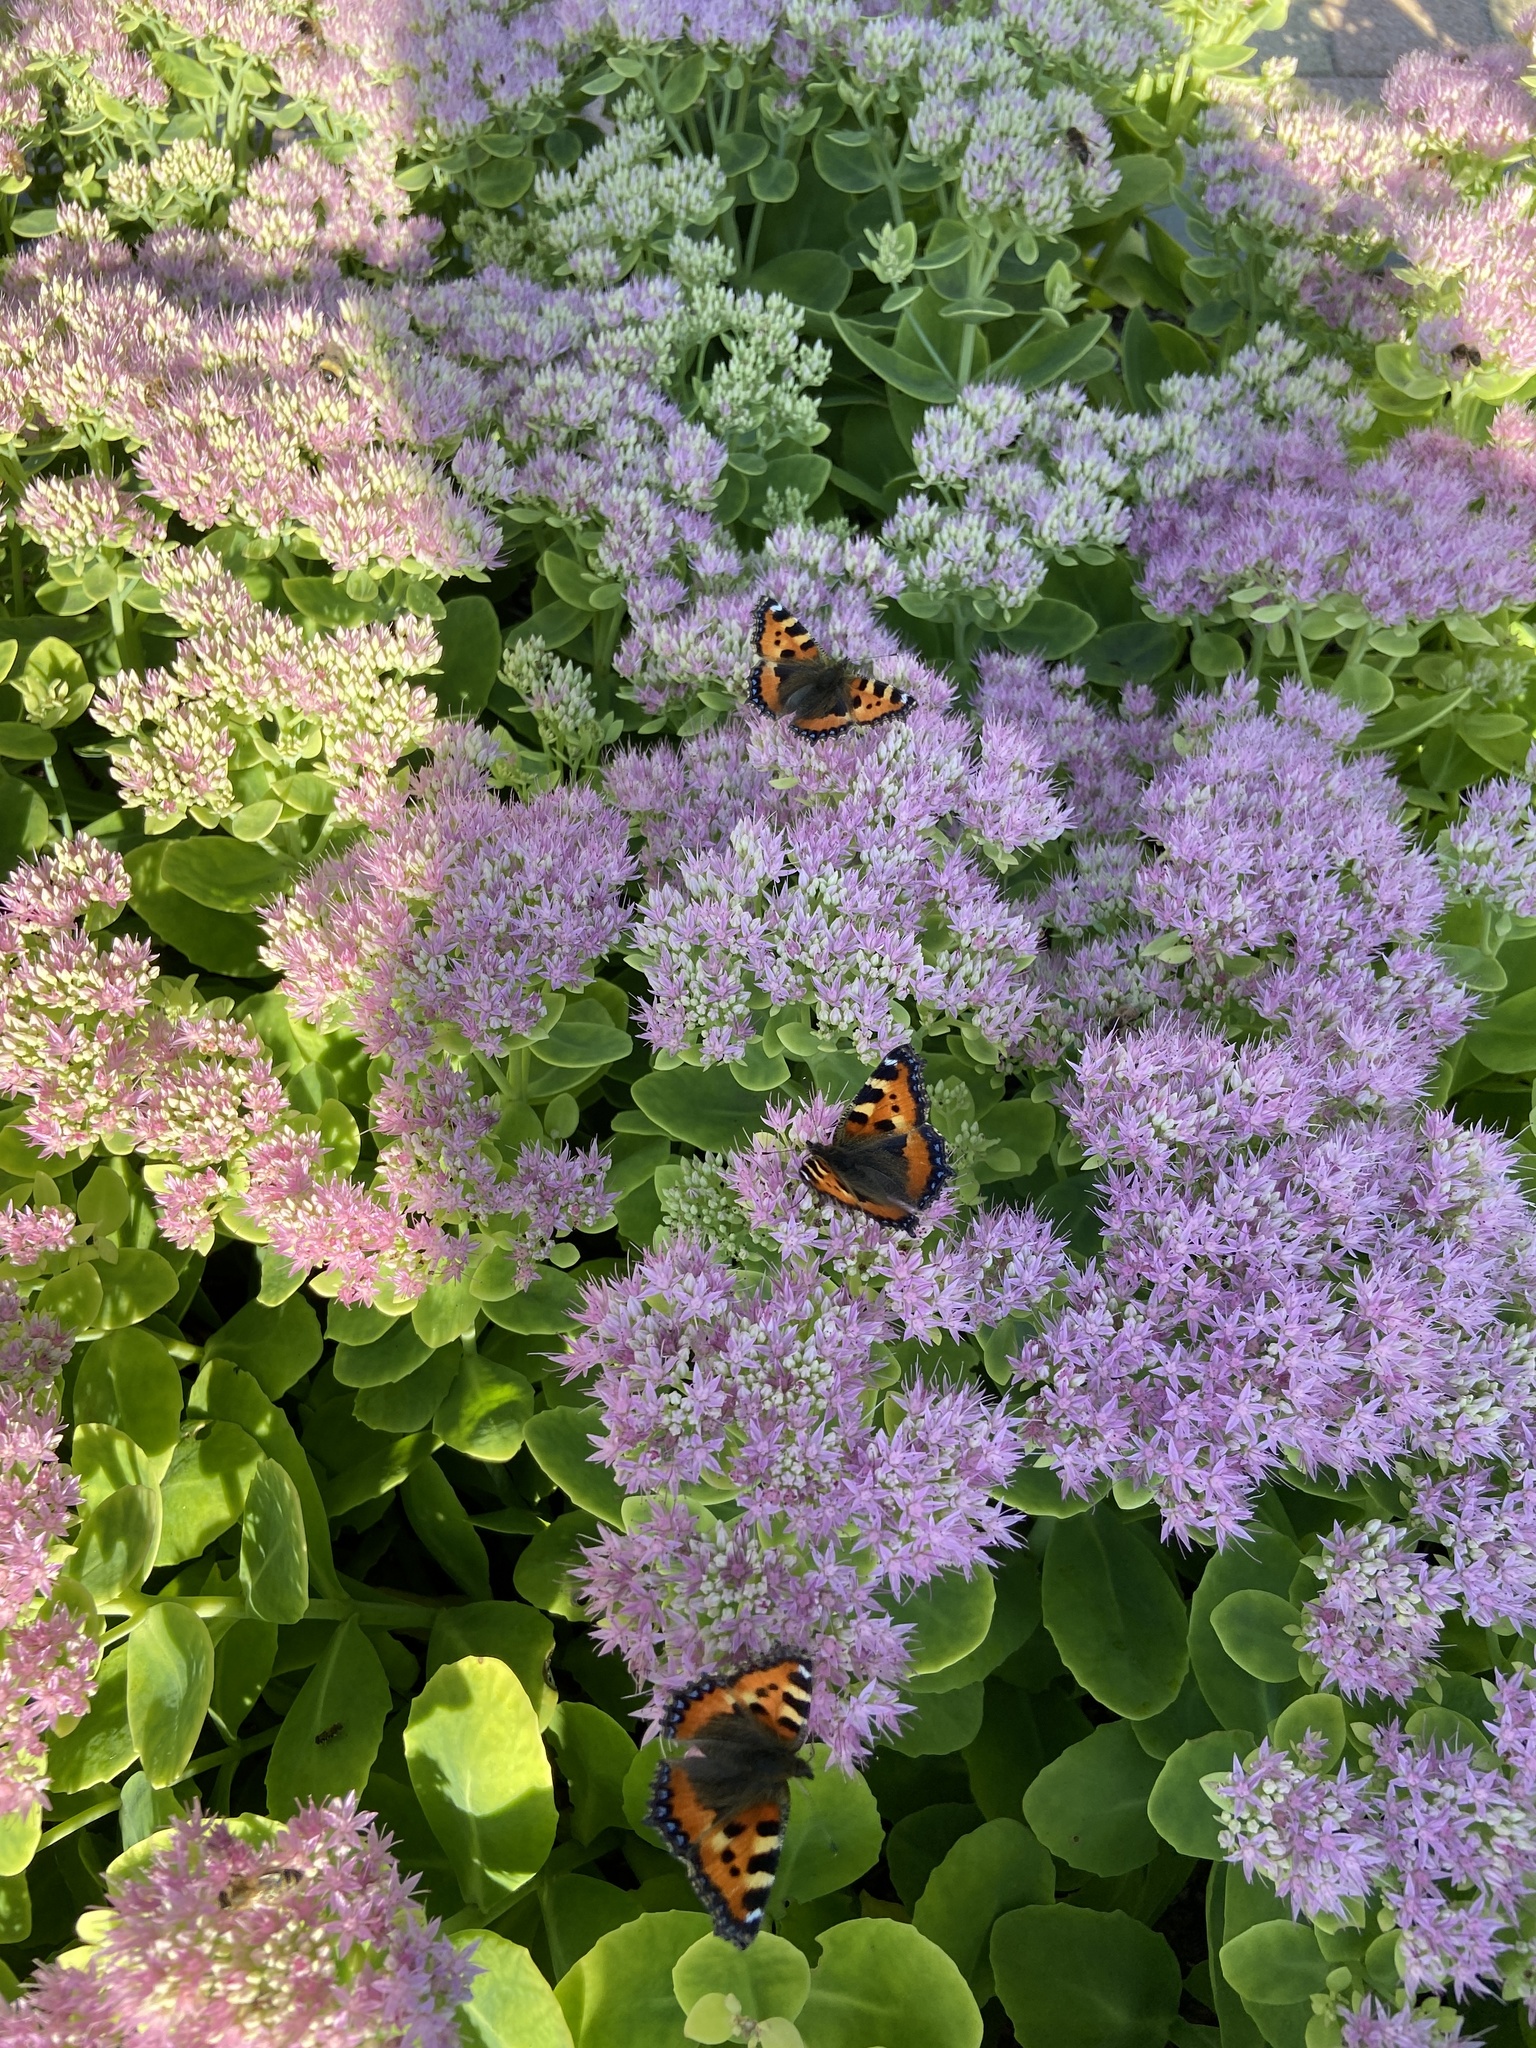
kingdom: Animalia
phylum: Arthropoda
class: Insecta
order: Lepidoptera
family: Nymphalidae
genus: Aglais
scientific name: Aglais urticae
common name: Small tortoiseshell
